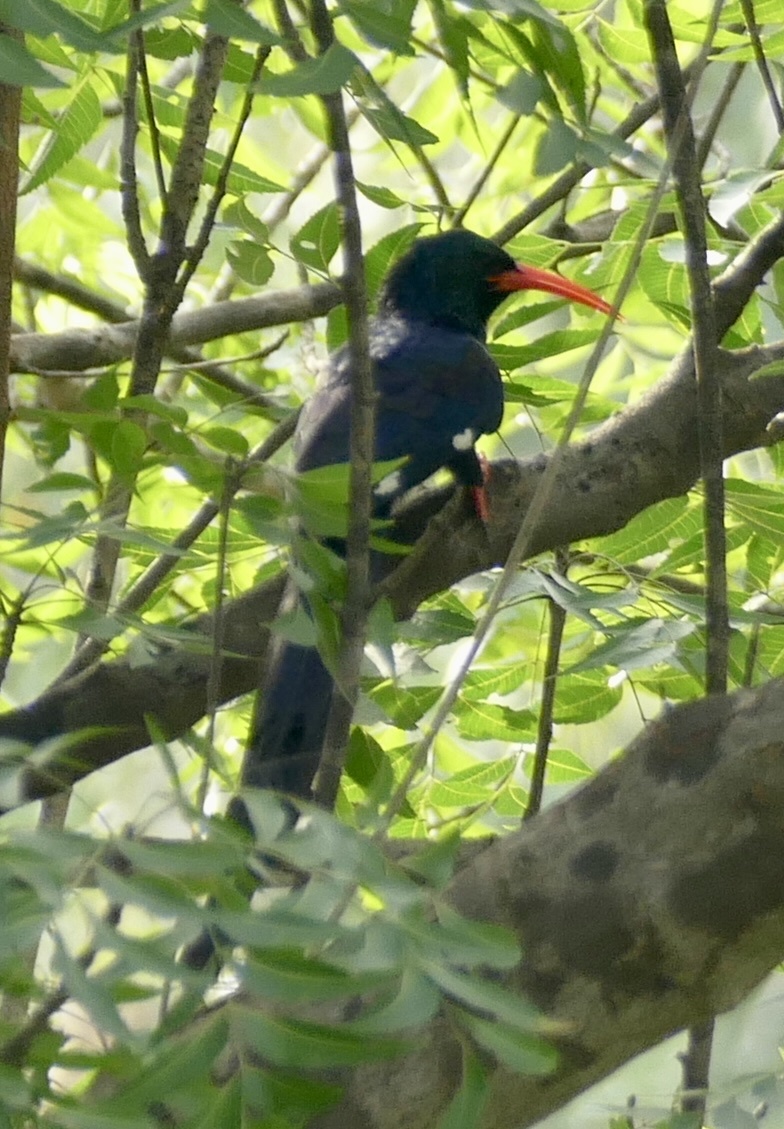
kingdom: Animalia
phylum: Chordata
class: Aves
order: Bucerotiformes
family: Phoeniculidae
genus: Phoeniculus
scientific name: Phoeniculus purpureus
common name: Green woodhoopoe
